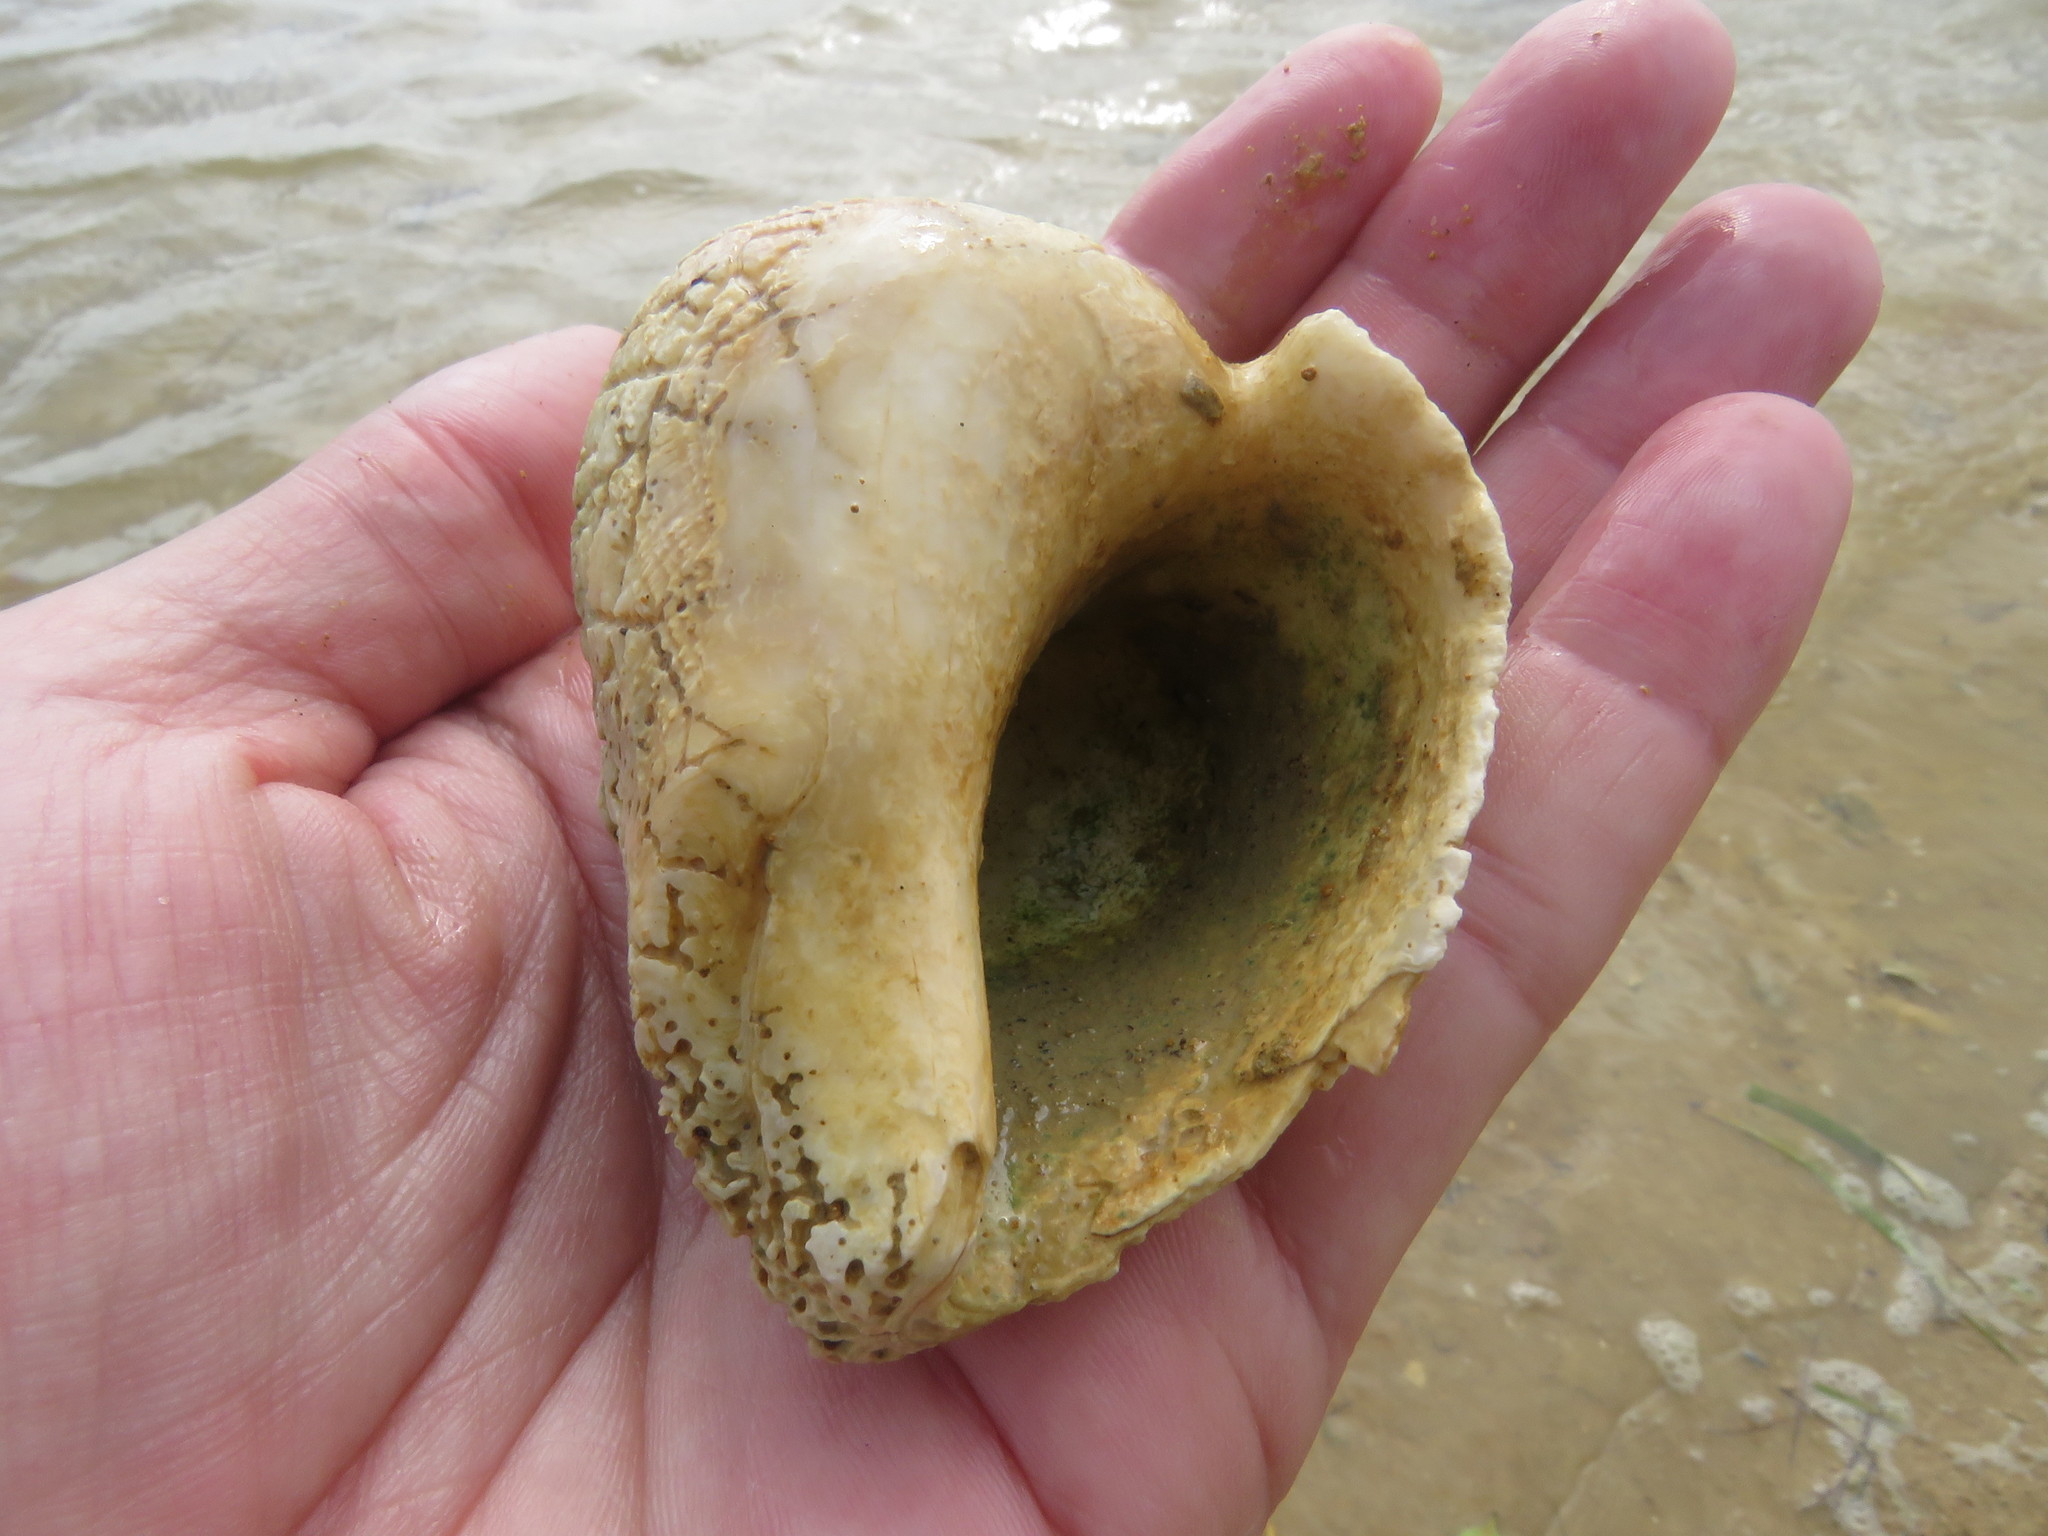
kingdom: Animalia
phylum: Mollusca
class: Gastropoda
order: Neogastropoda
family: Melongenidae
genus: Melongena
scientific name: Melongena melongena
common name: West indian crown conch
